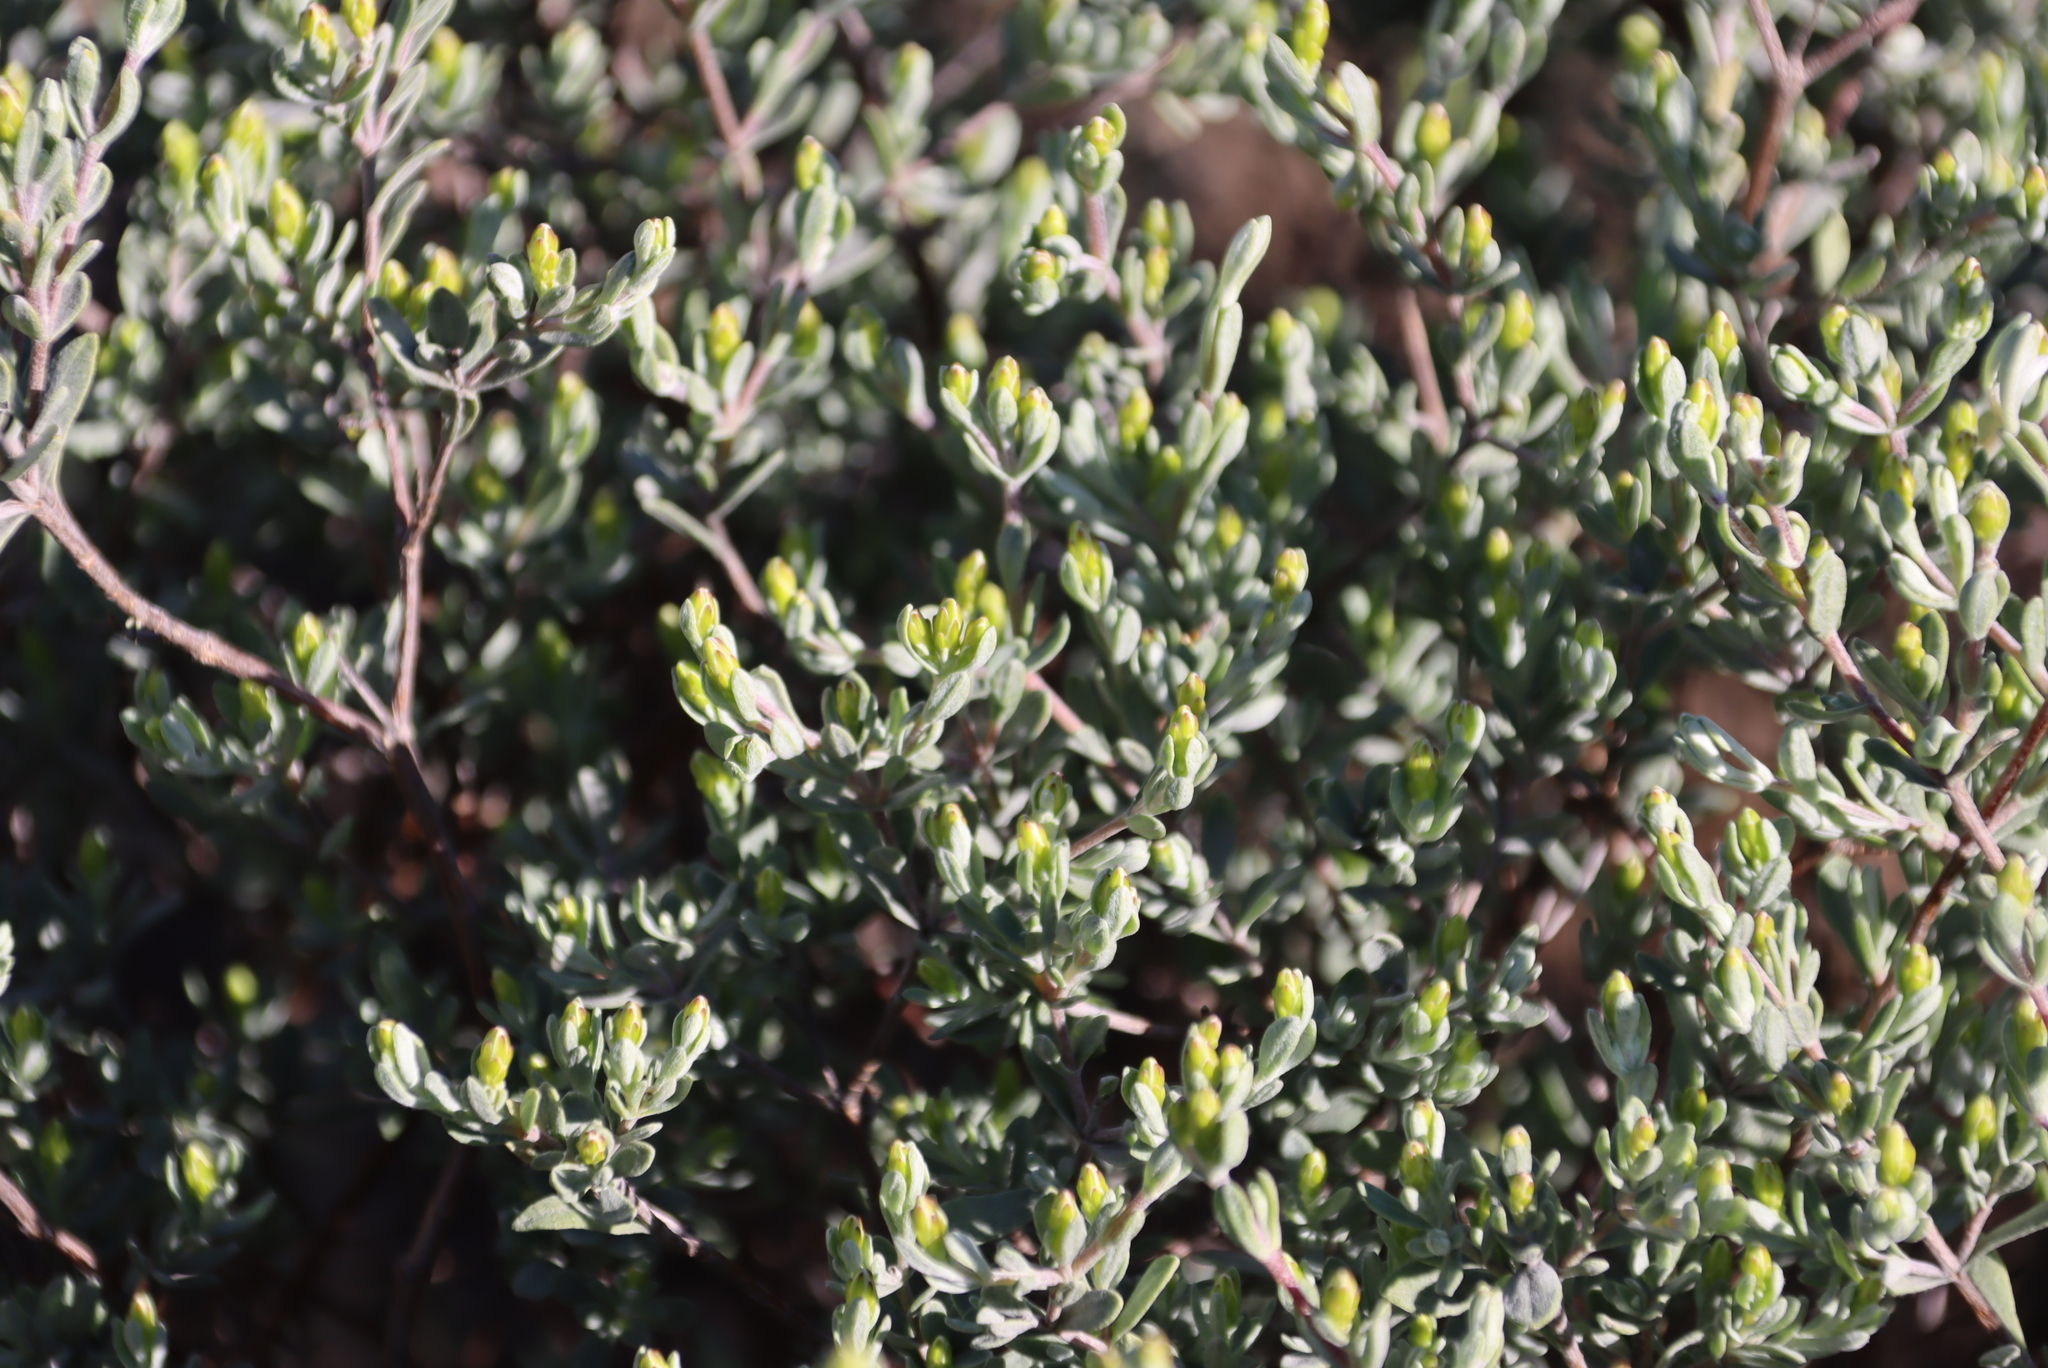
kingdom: Plantae
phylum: Tracheophyta
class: Magnoliopsida
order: Asterales
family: Asteraceae
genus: Pteronia
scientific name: Pteronia incana
